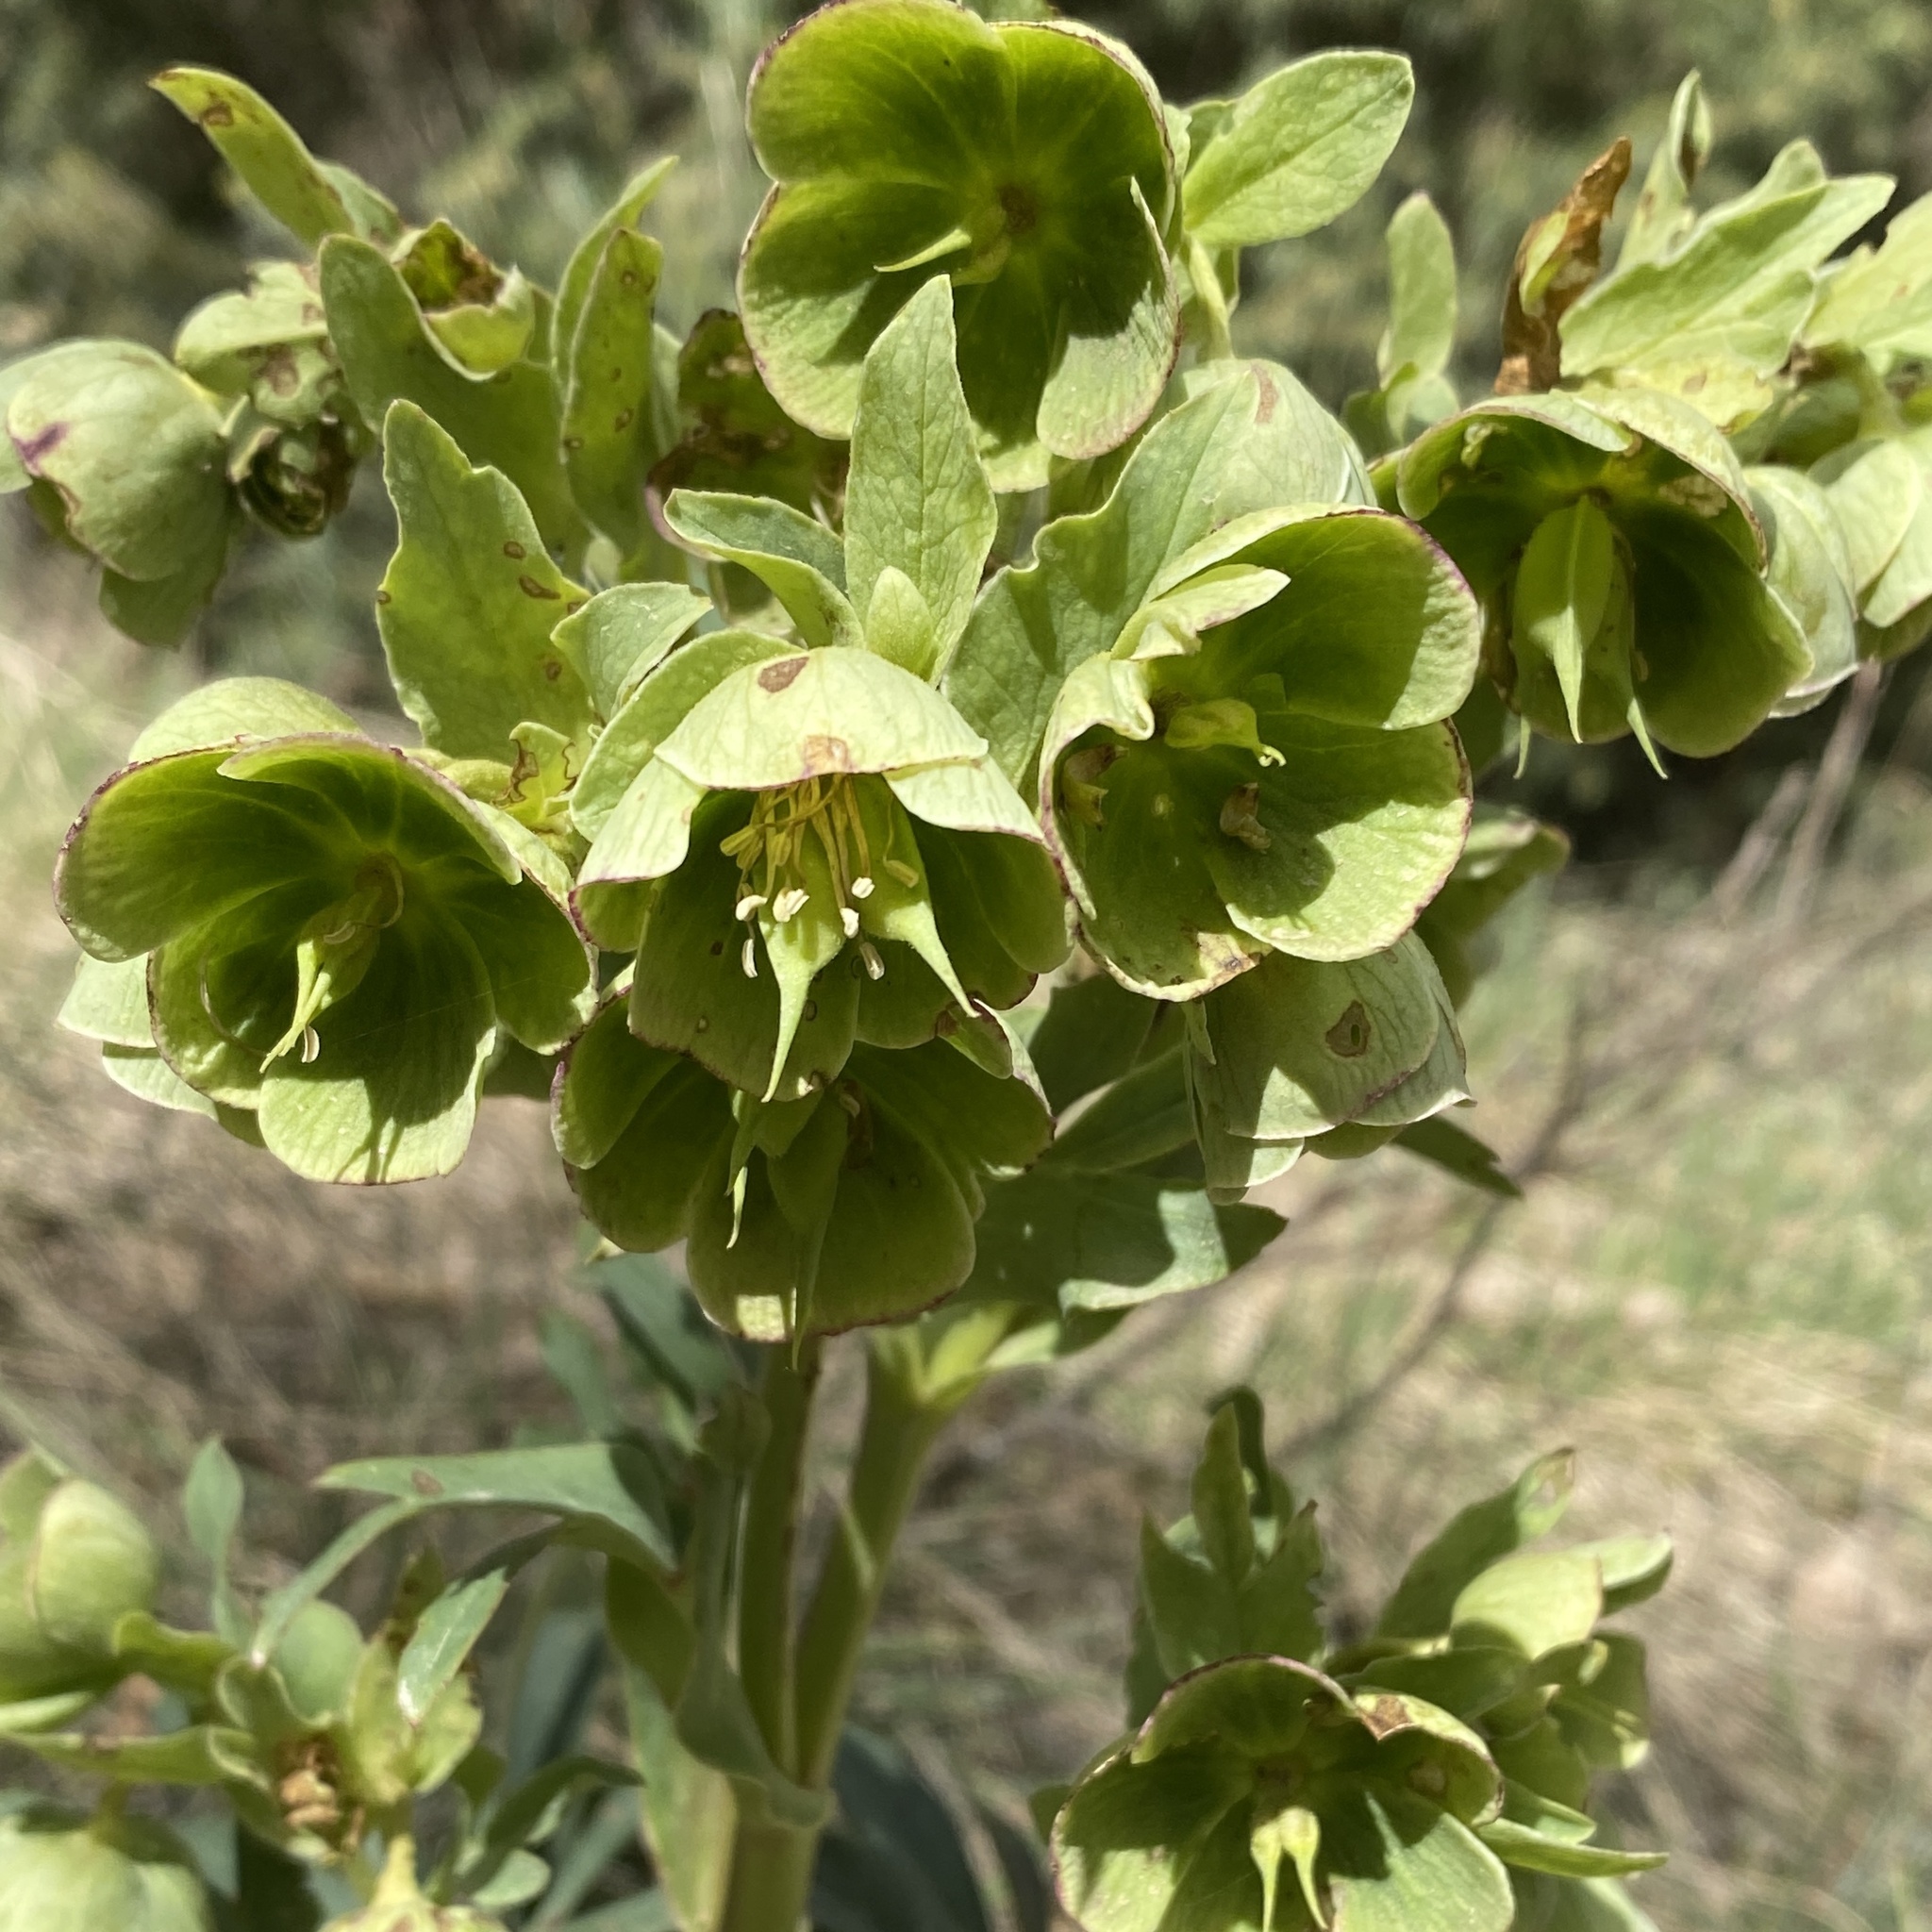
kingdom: Plantae
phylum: Tracheophyta
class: Magnoliopsida
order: Ranunculales
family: Ranunculaceae
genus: Helleborus
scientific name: Helleborus foetidus
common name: Stinking hellebore
